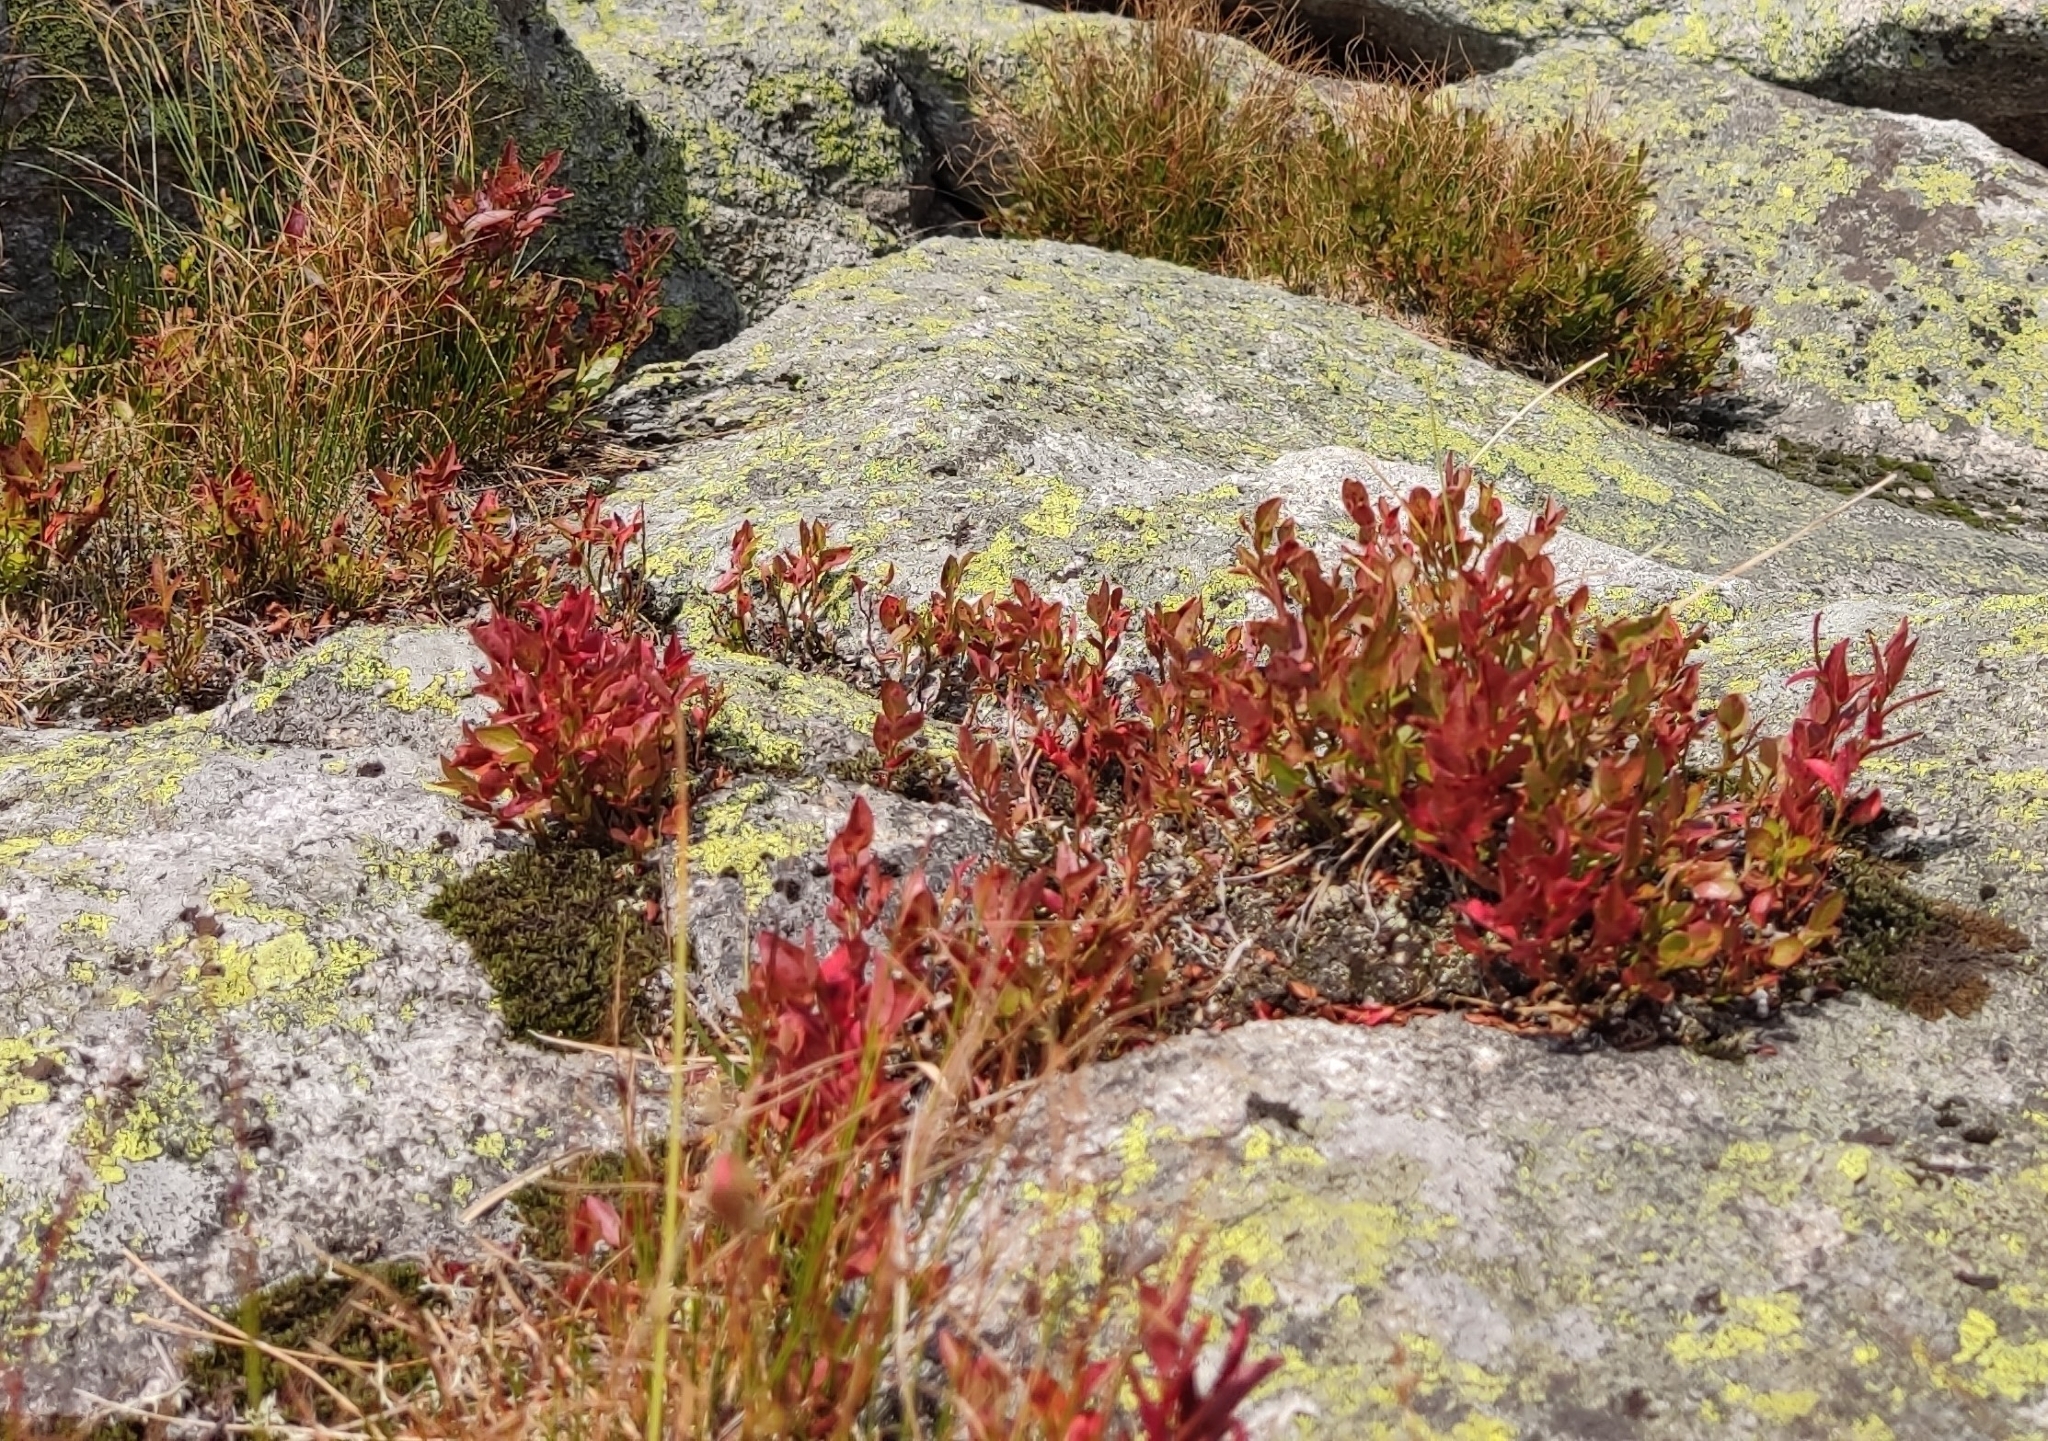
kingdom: Plantae
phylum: Tracheophyta
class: Magnoliopsida
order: Ericales
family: Ericaceae
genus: Vaccinium
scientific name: Vaccinium myrtillus
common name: Bilberry
